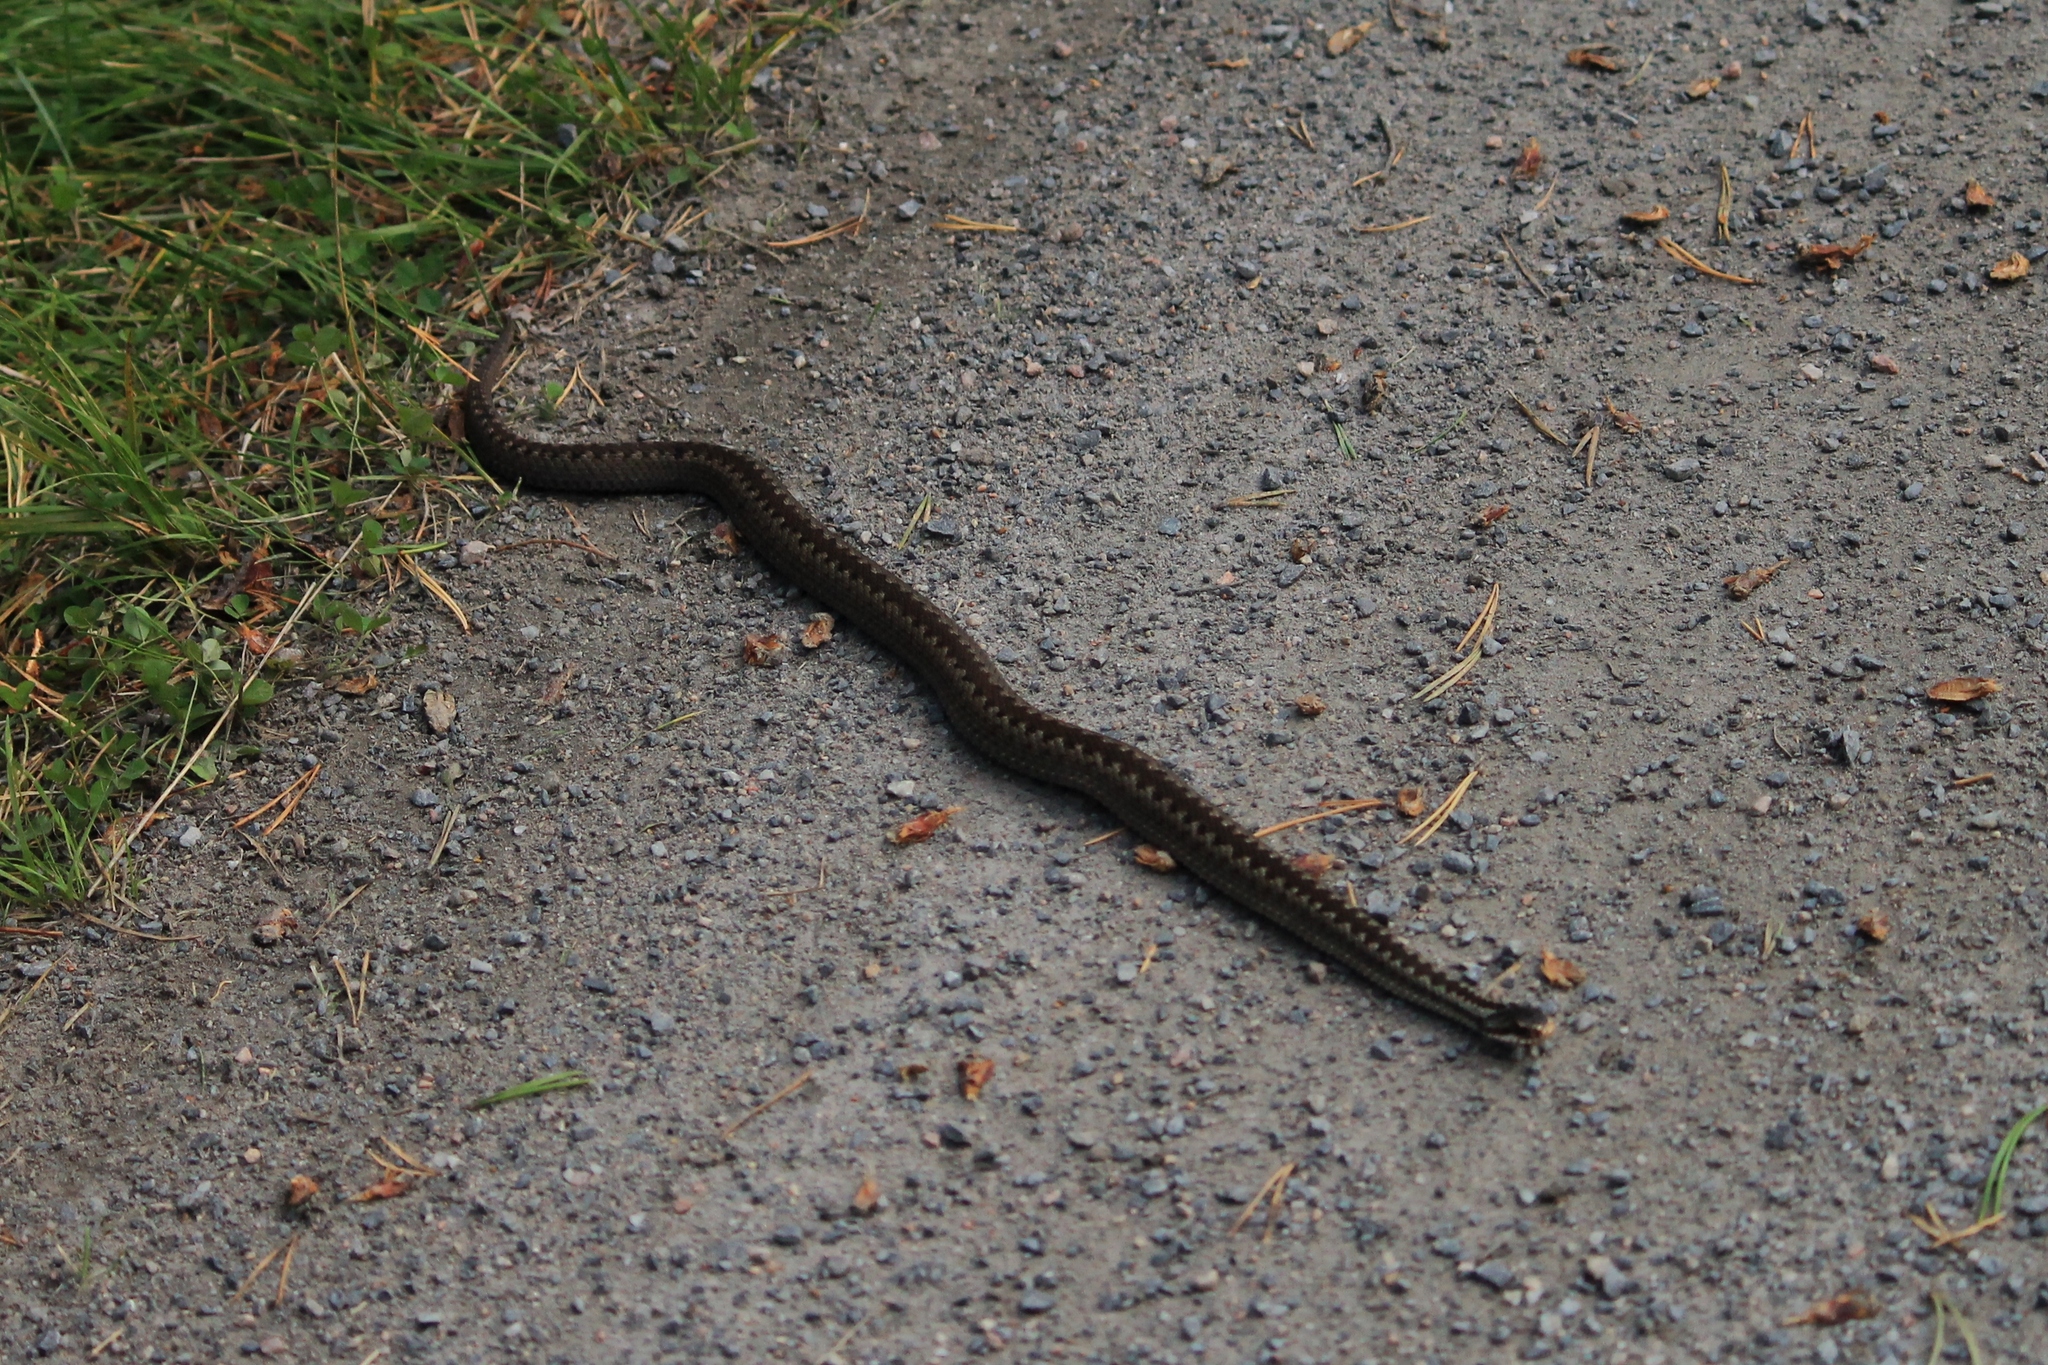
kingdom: Animalia
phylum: Chordata
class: Squamata
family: Viperidae
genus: Vipera
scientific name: Vipera berus
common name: Adder
